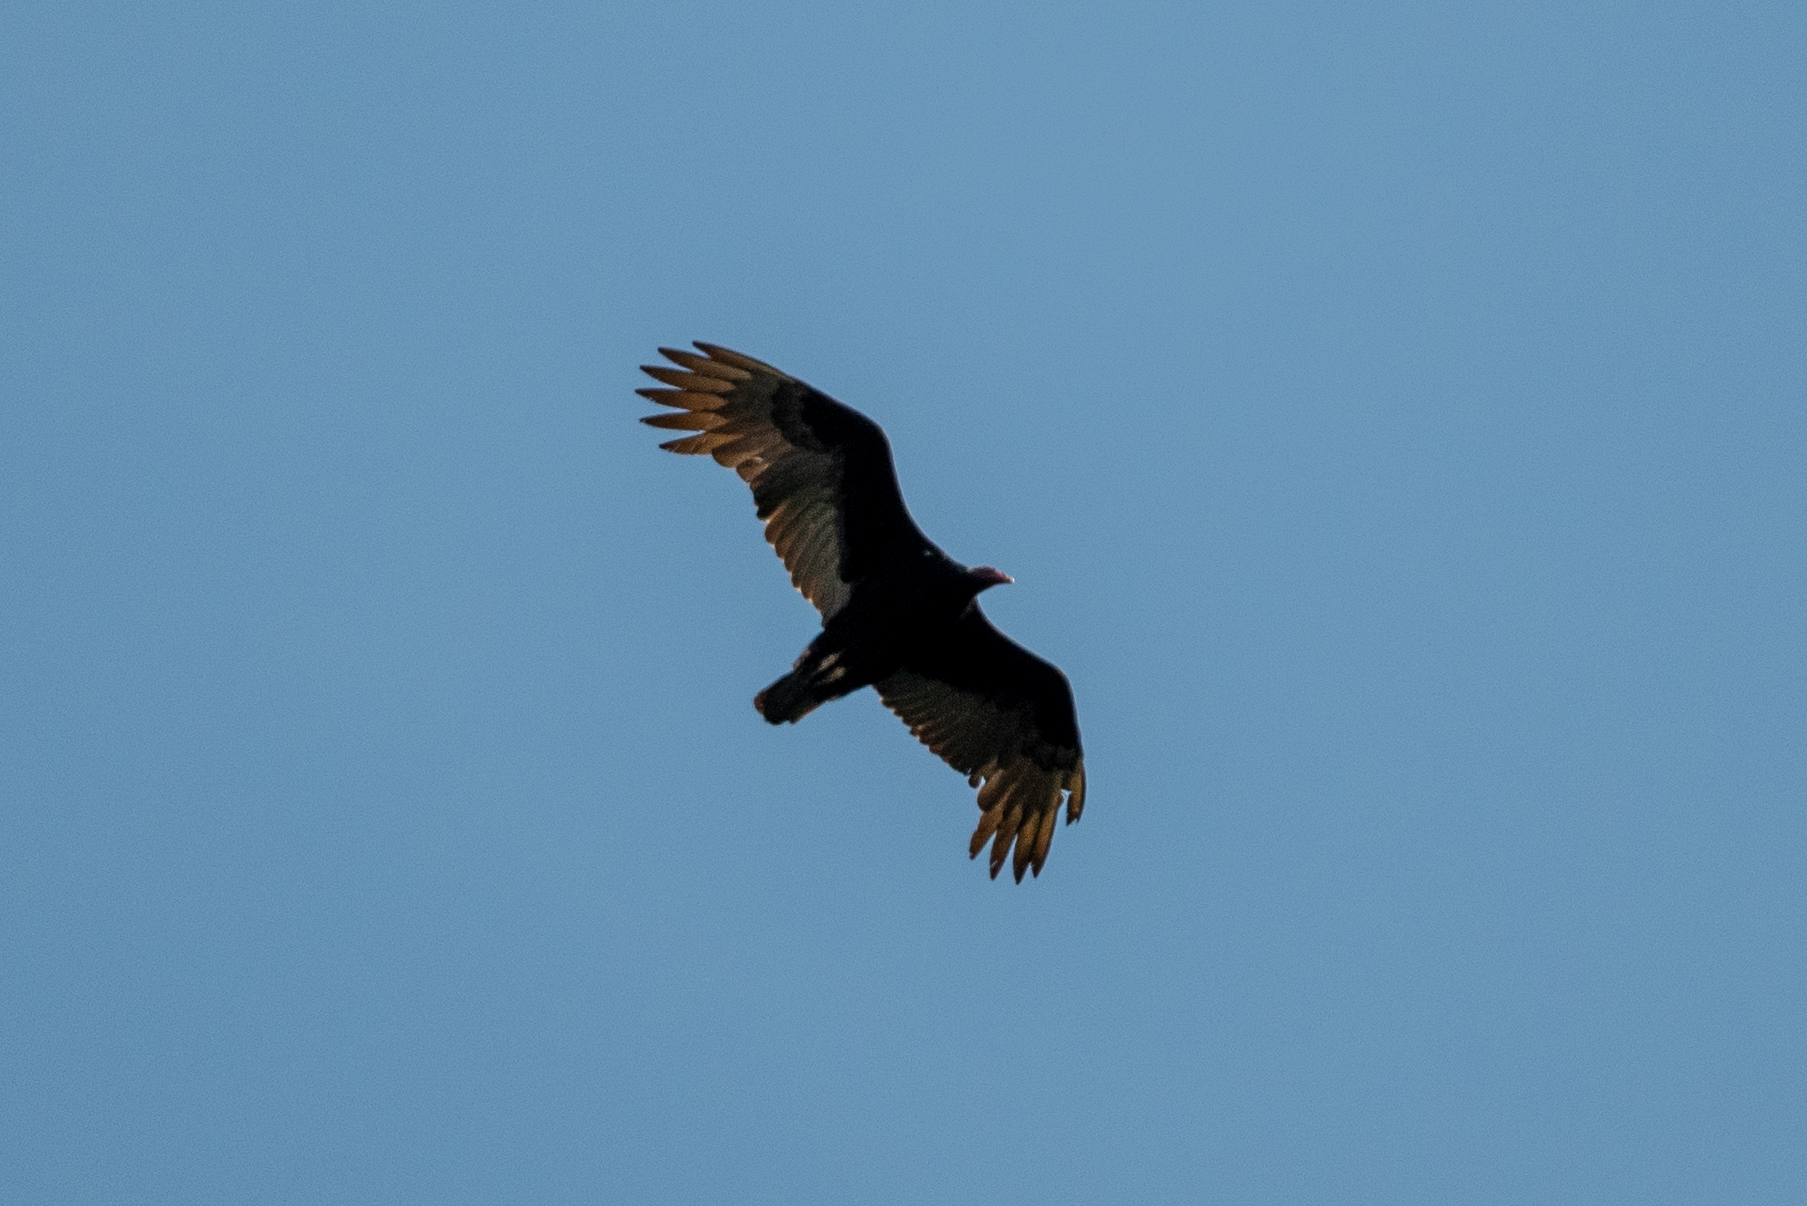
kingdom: Animalia
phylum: Chordata
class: Aves
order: Accipitriformes
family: Cathartidae
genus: Cathartes
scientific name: Cathartes aura
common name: Turkey vulture
